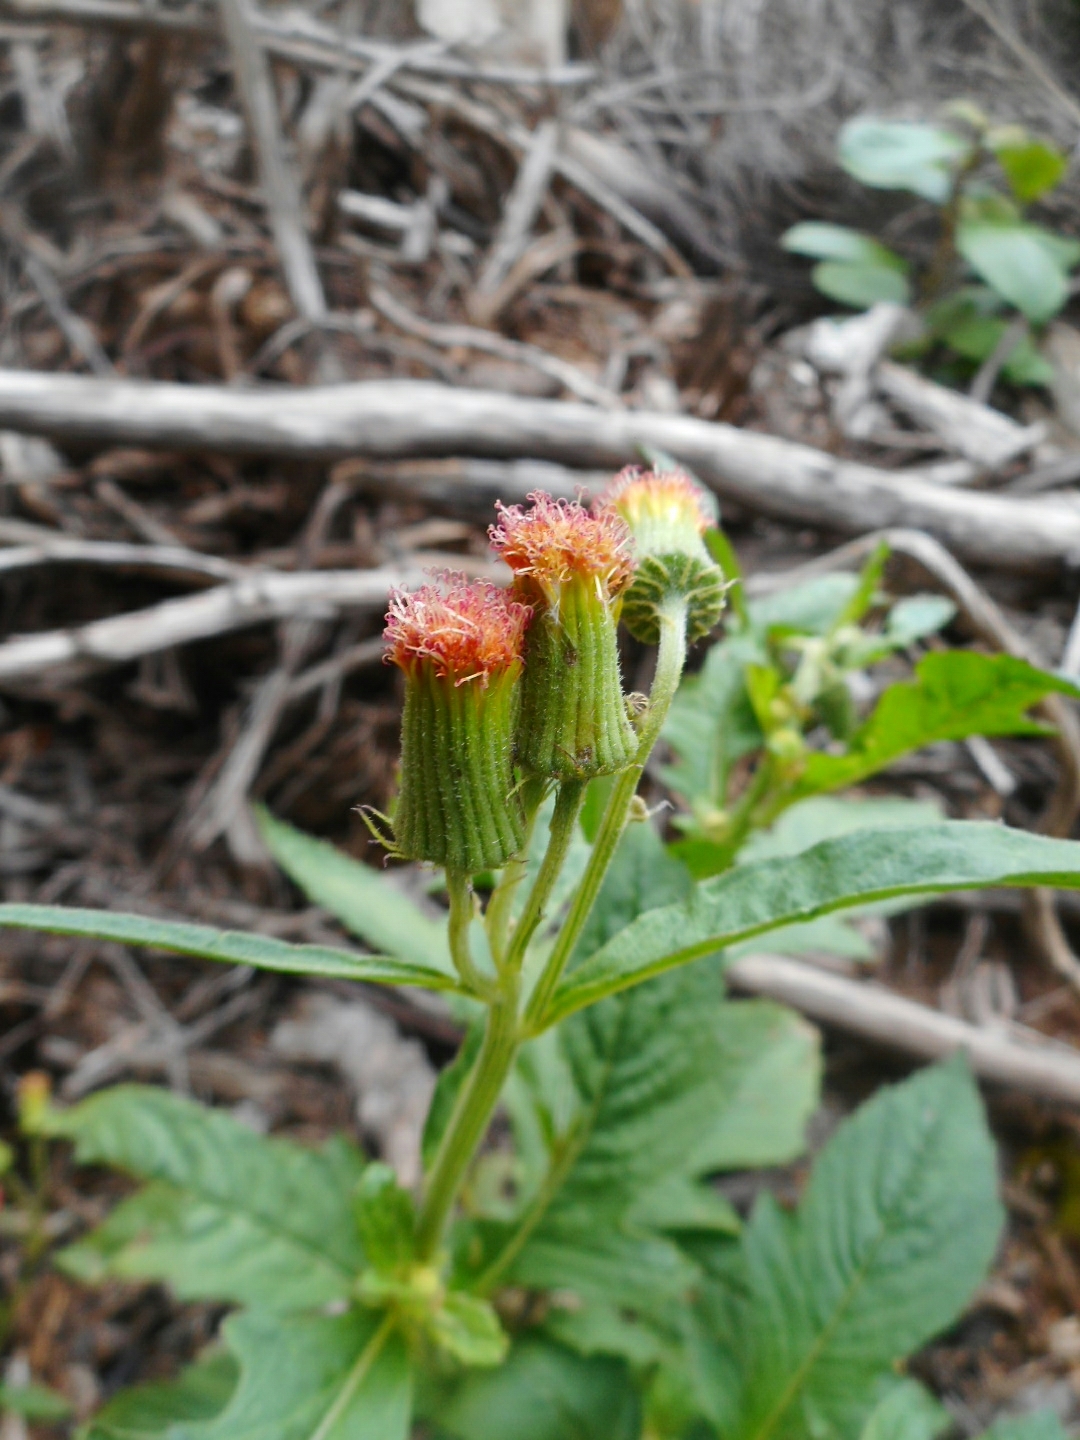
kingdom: Plantae
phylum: Tracheophyta
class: Magnoliopsida
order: Asterales
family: Asteraceae
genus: Crassocephalum
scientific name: Crassocephalum crepidioides
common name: Redflower ragleaf
